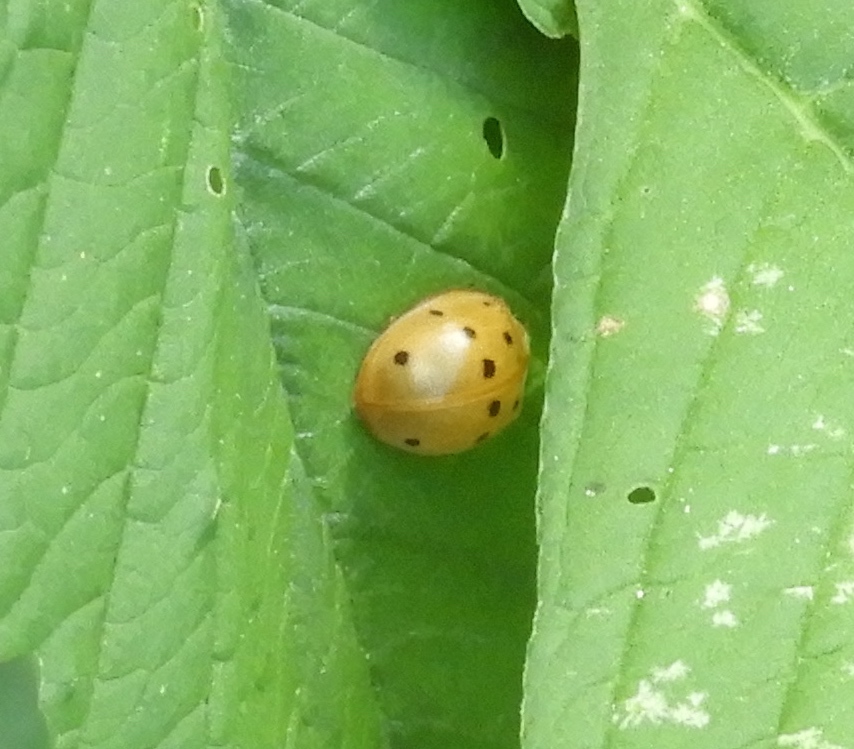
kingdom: Animalia
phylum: Arthropoda
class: Insecta
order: Coleoptera
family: Coccinellidae
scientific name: Coccinellidae
